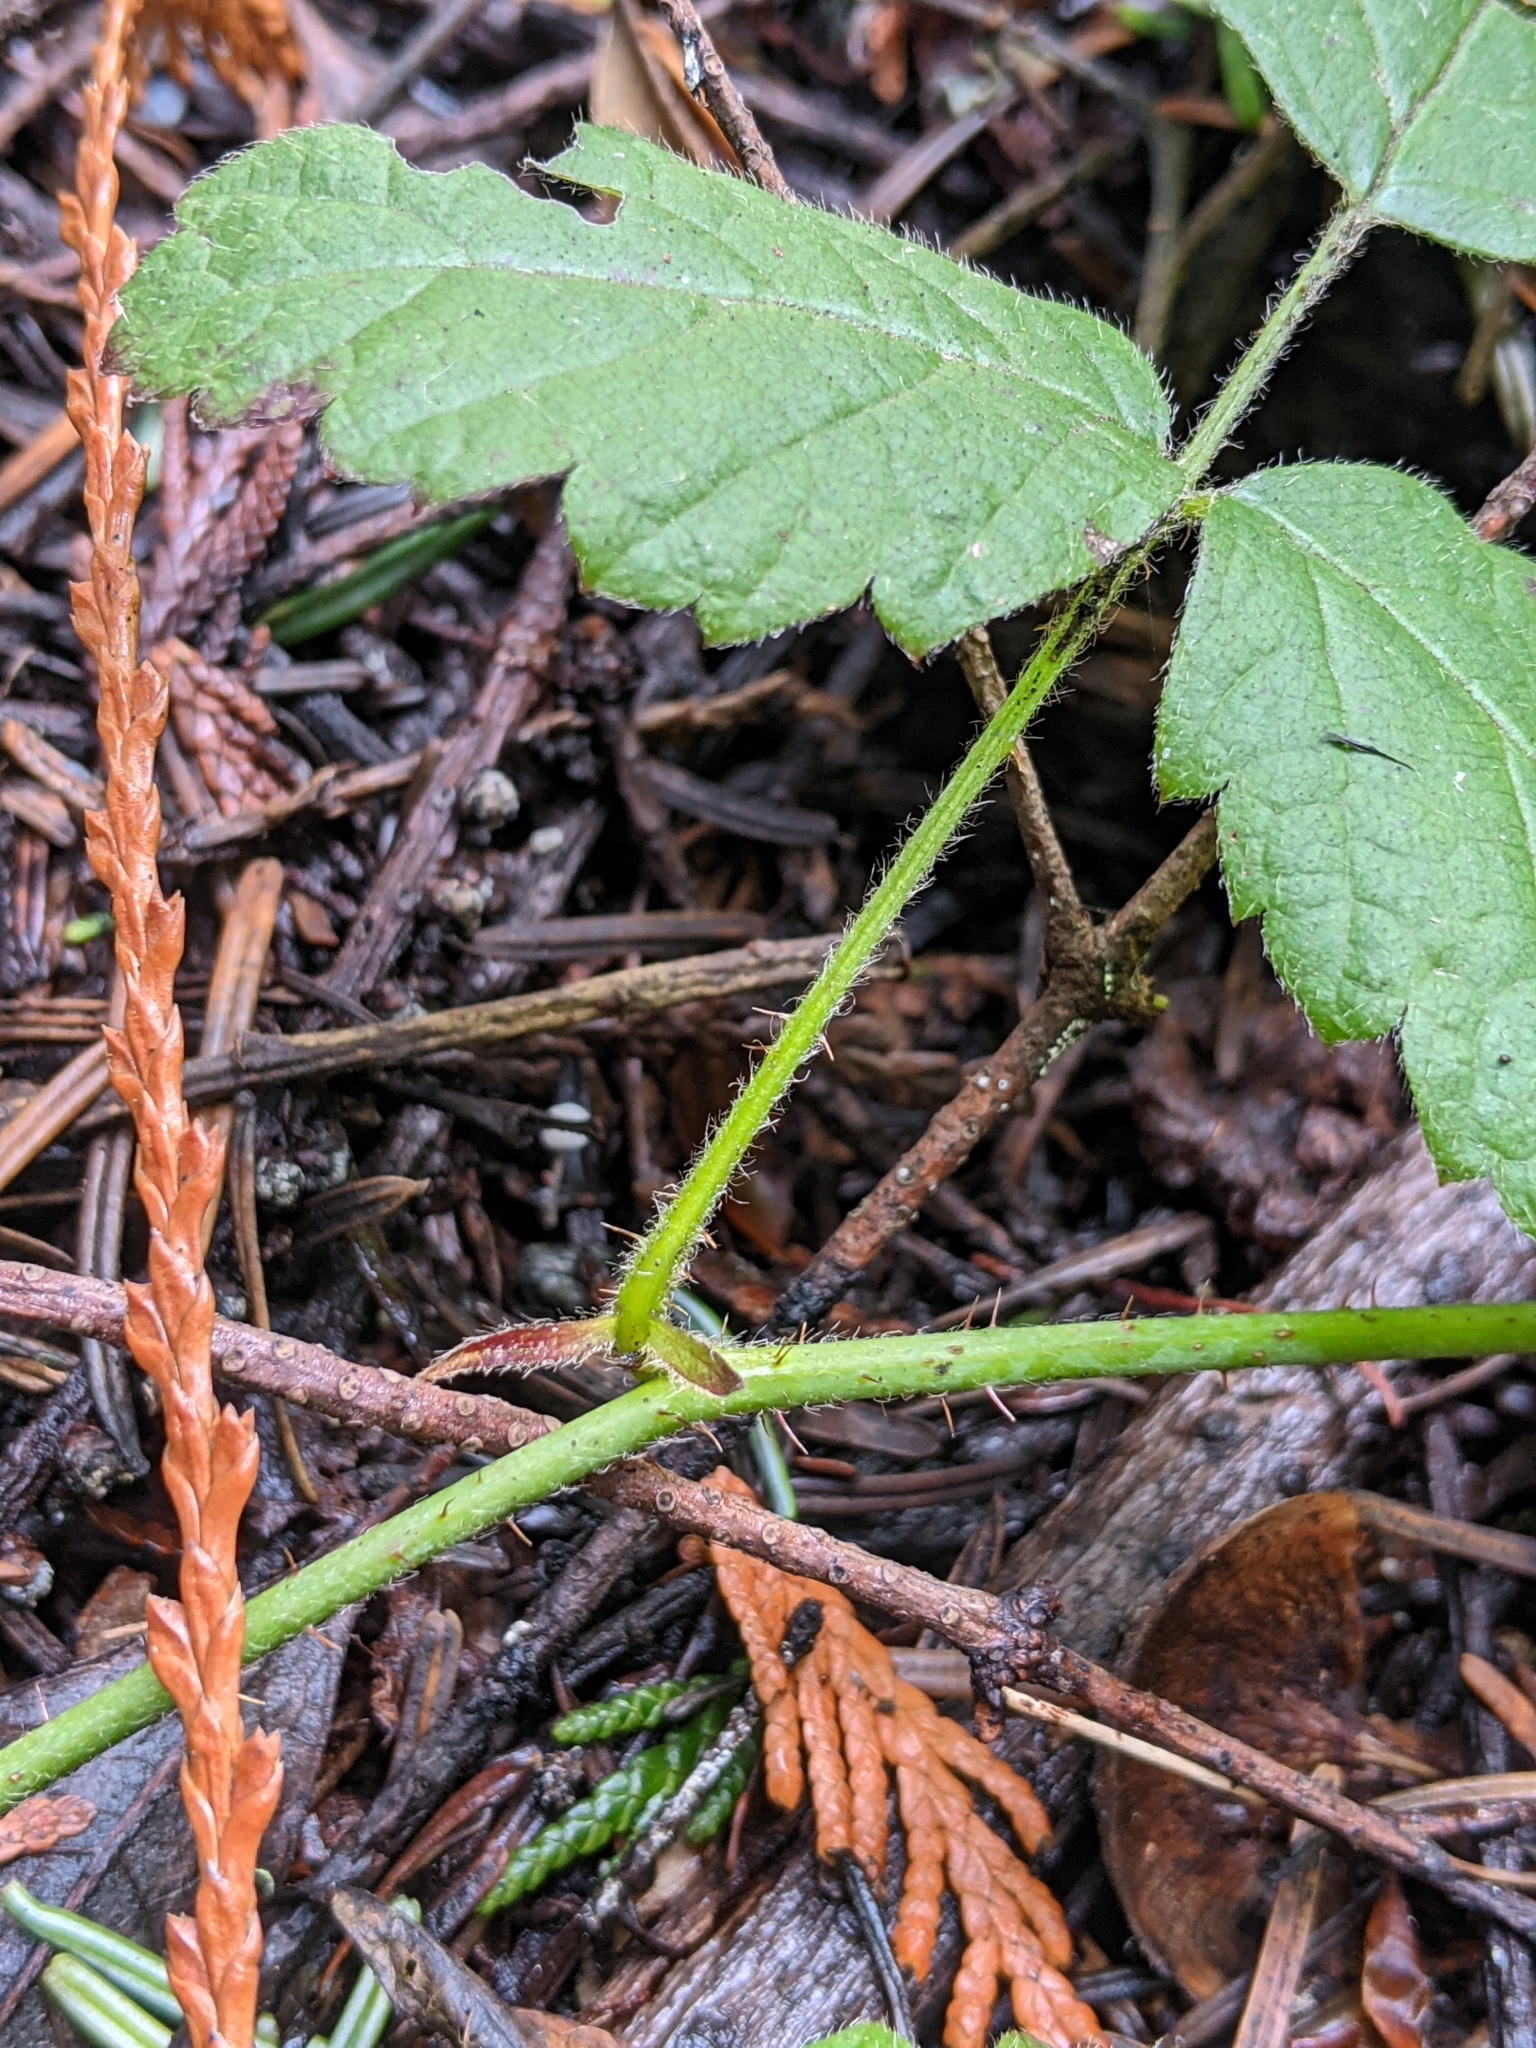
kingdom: Plantae
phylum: Tracheophyta
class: Magnoliopsida
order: Rosales
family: Rosaceae
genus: Rubus
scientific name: Rubus ursinus
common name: Pacific blackberry
